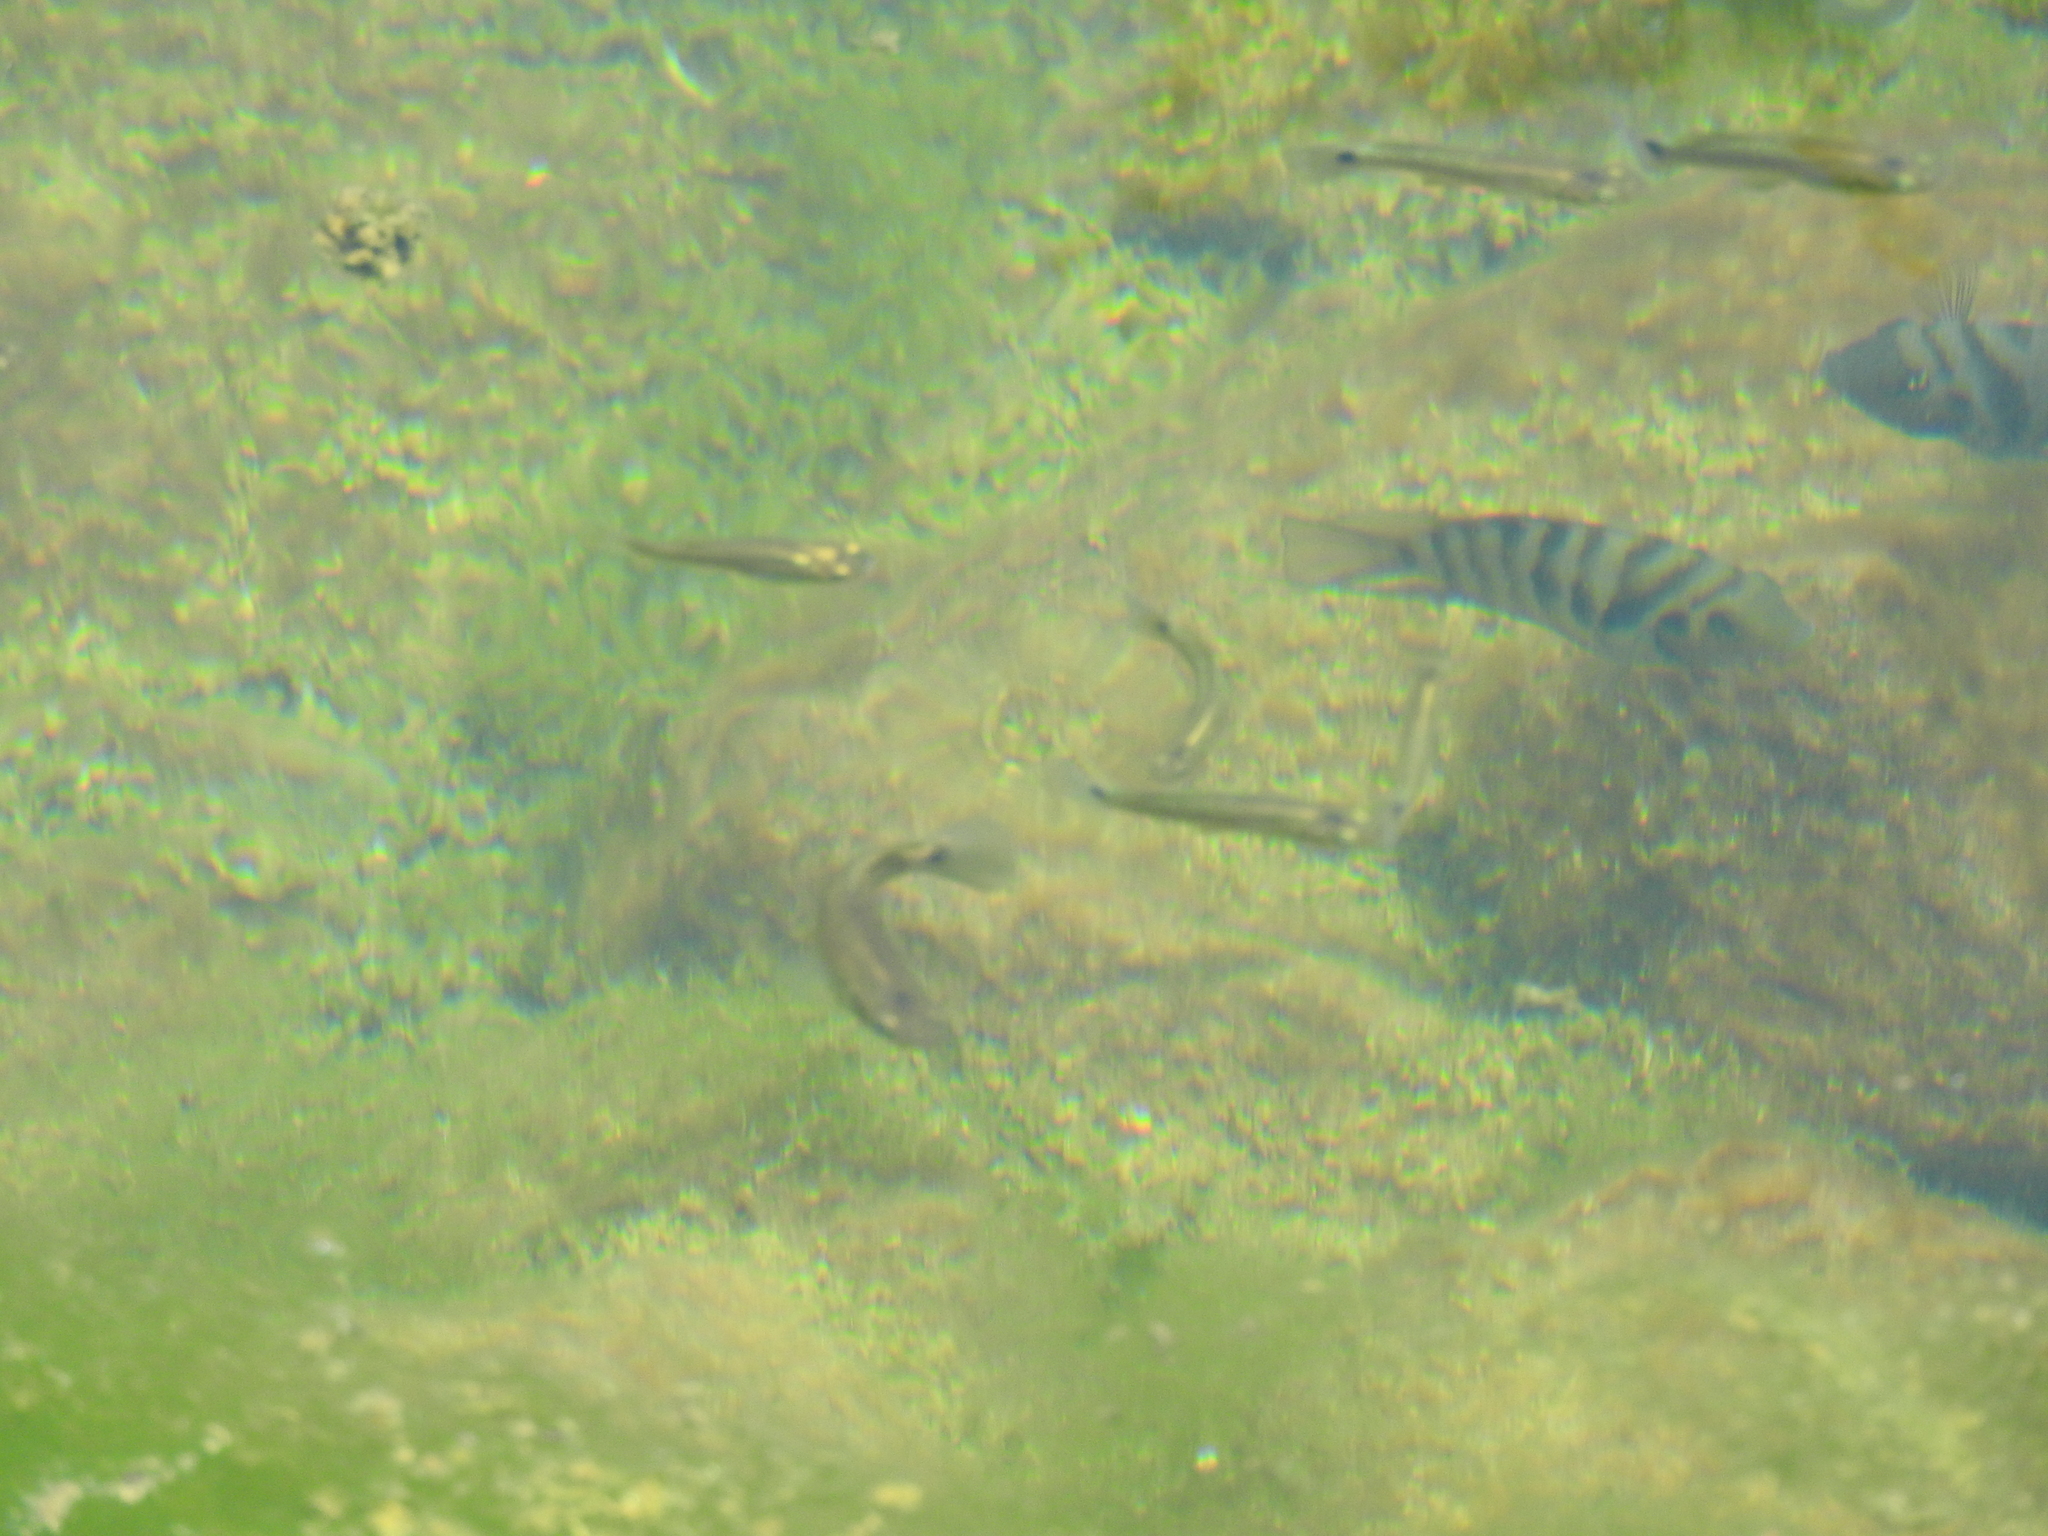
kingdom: Animalia
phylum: Chordata
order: Cyprinodontiformes
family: Poeciliidae
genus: Pseudoxiphophorus
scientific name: Pseudoxiphophorus bimaculatus
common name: Twospot livebearer
